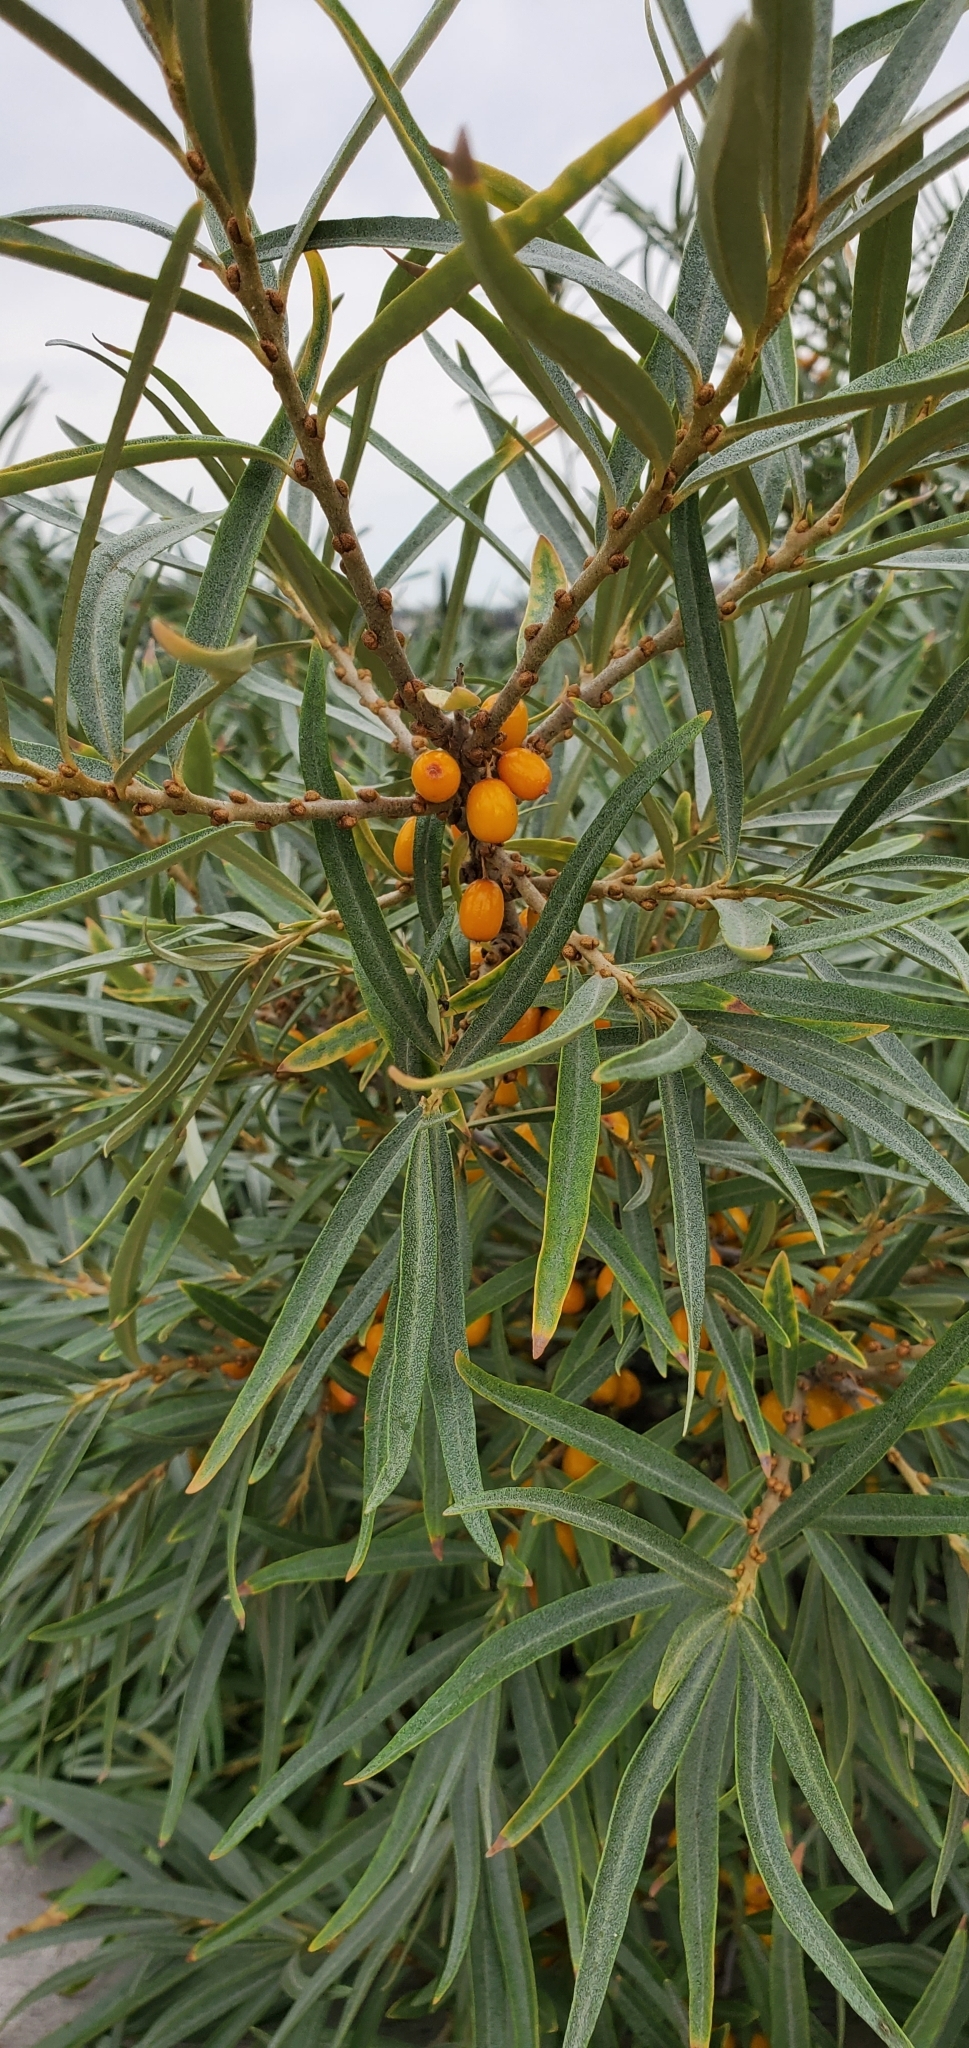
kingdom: Plantae
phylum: Tracheophyta
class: Magnoliopsida
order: Rosales
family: Elaeagnaceae
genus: Hippophae
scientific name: Hippophae rhamnoides
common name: Sea-buckthorn
